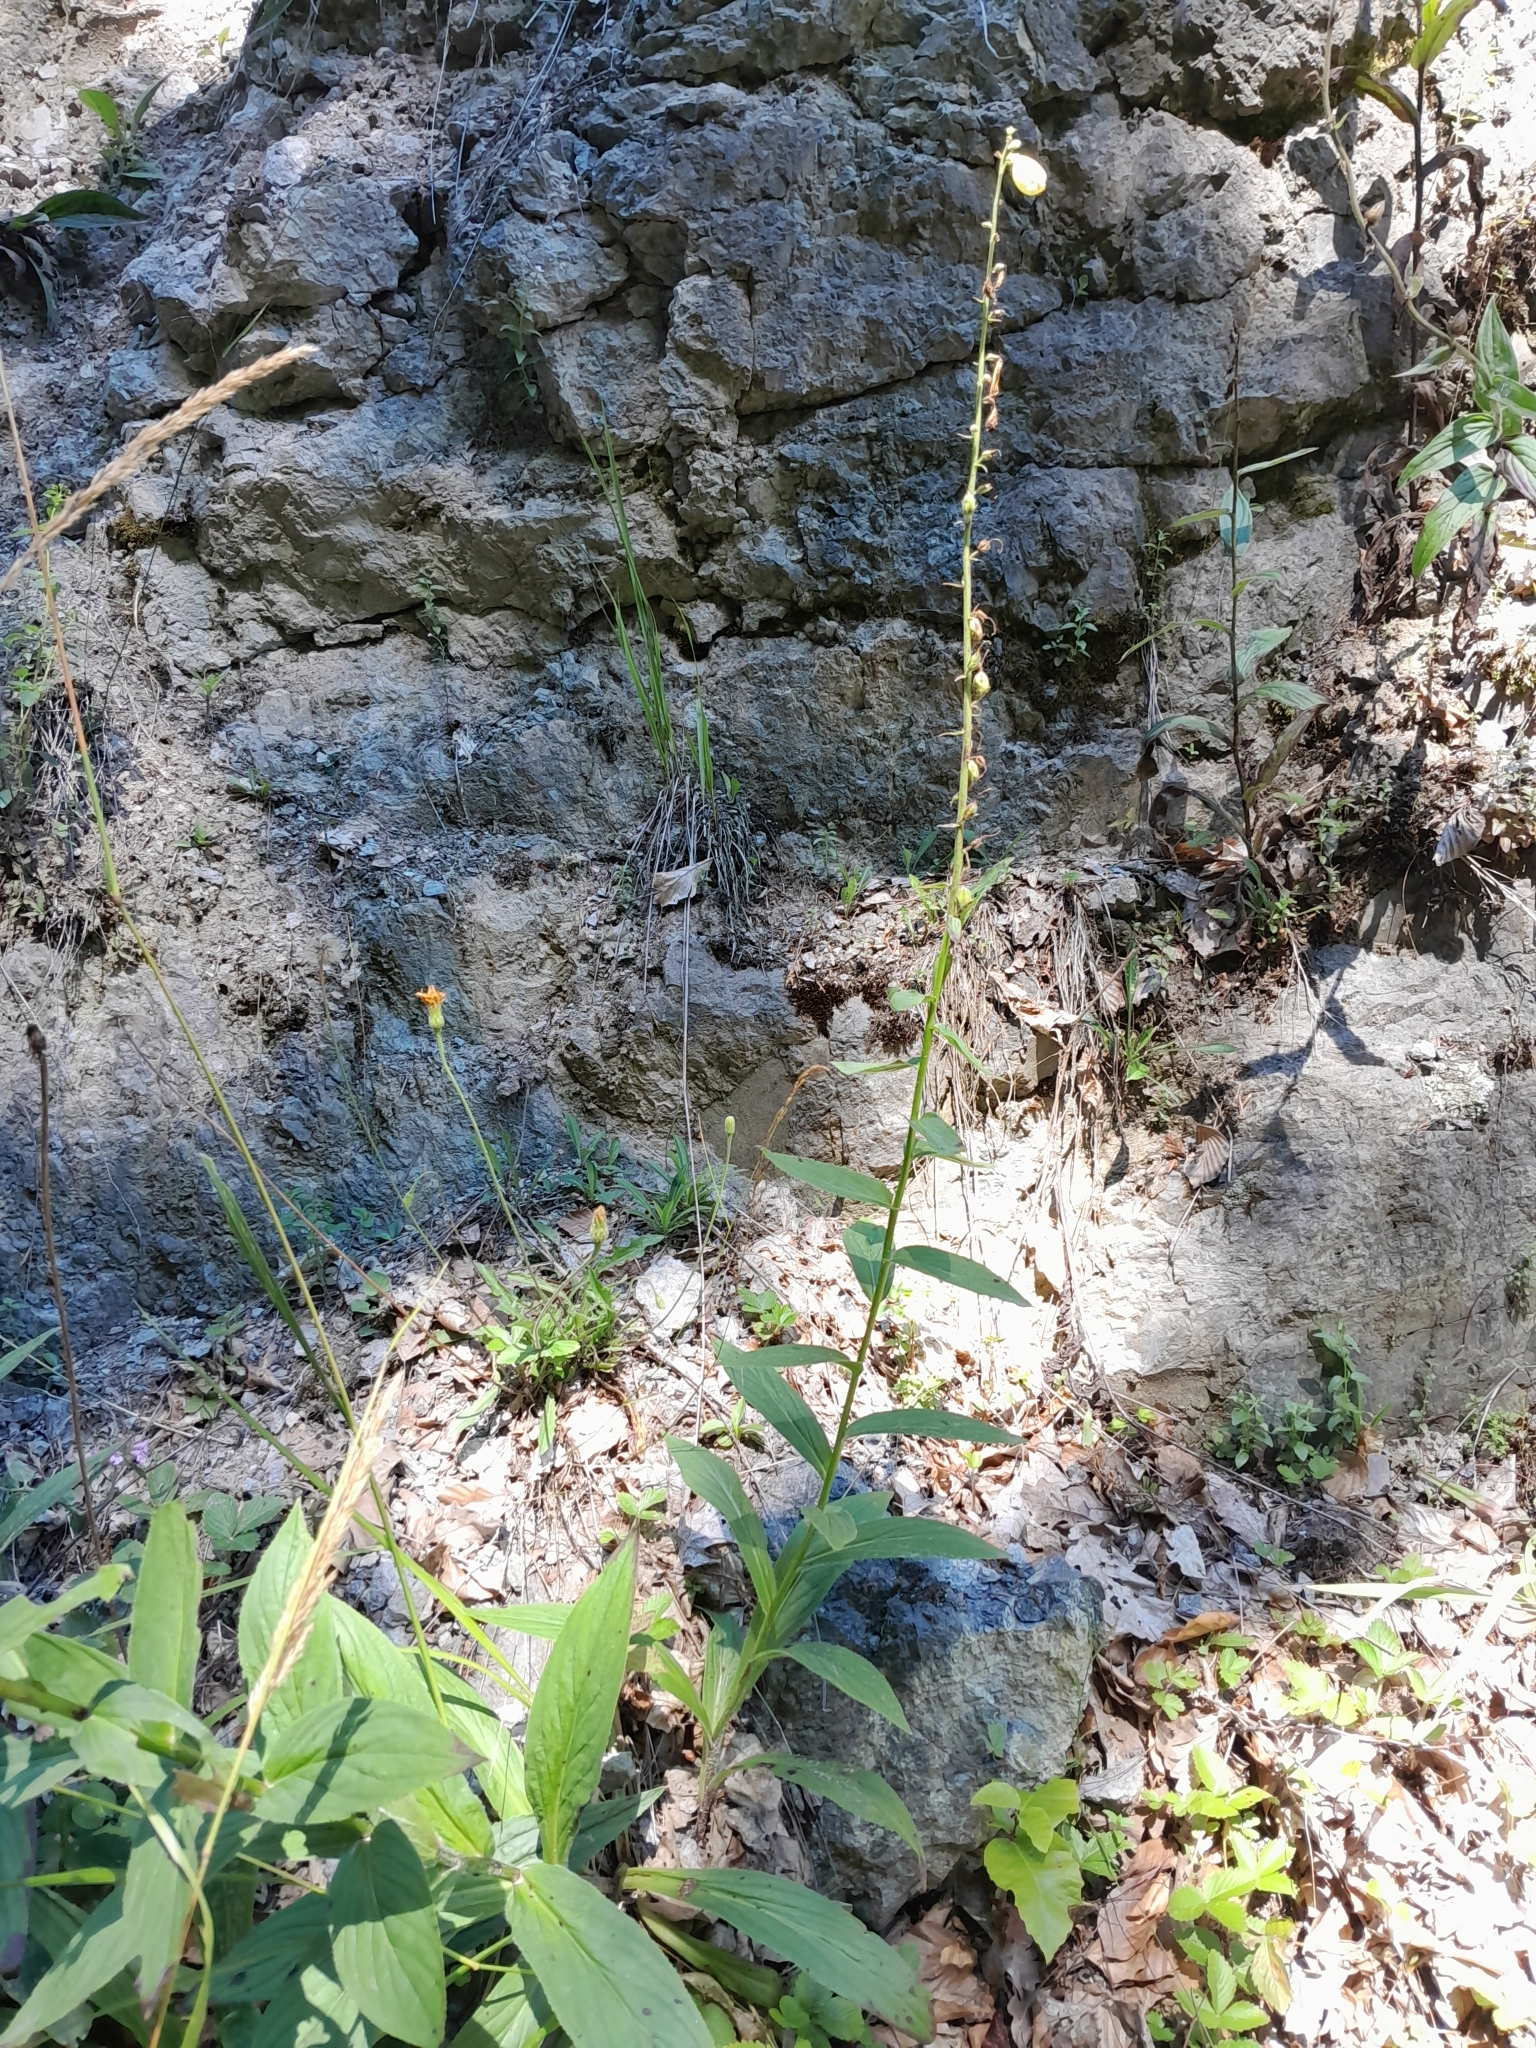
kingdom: Plantae
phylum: Tracheophyta
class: Magnoliopsida
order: Lamiales
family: Plantaginaceae
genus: Digitalis
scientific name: Digitalis grandiflora
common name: Yellow foxglove
